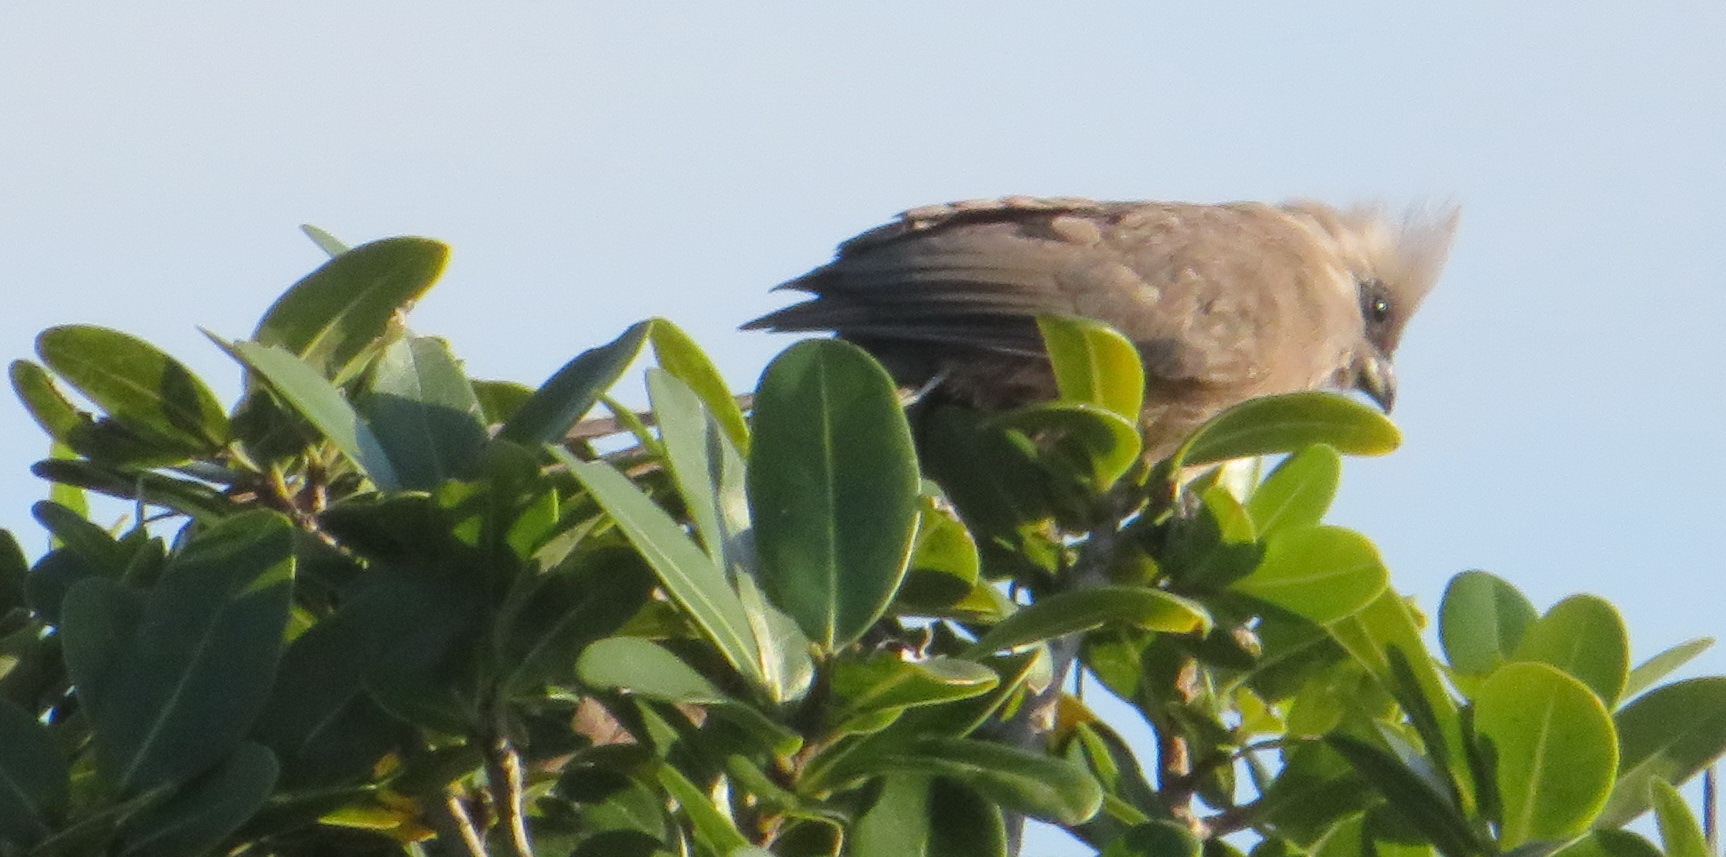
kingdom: Animalia
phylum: Chordata
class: Aves
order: Coliiformes
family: Coliidae
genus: Colius
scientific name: Colius striatus
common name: Speckled mousebird
